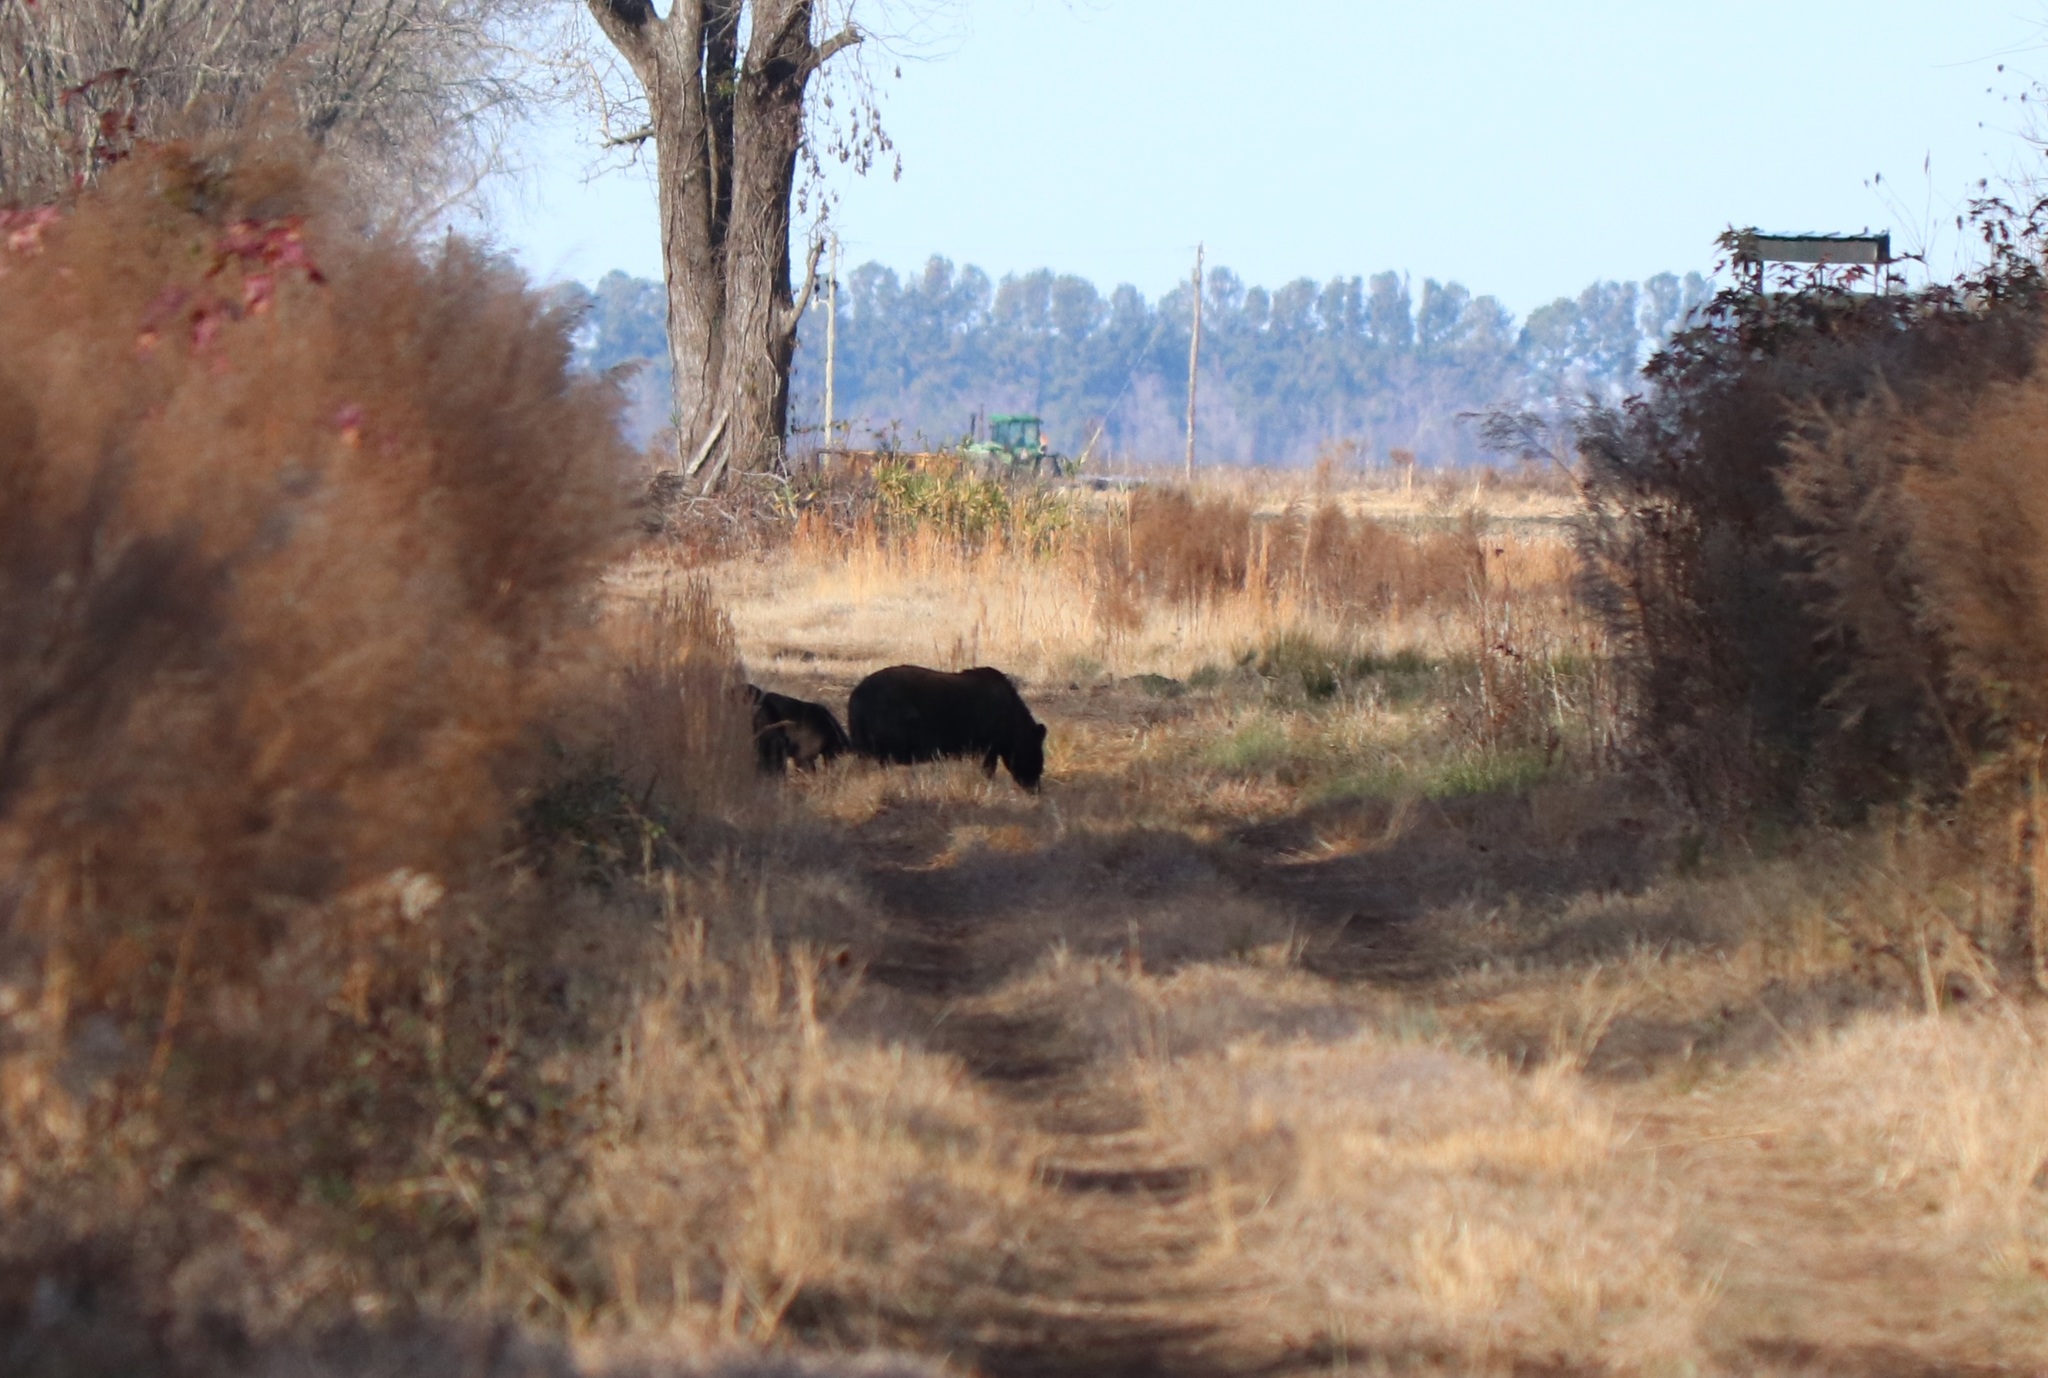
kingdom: Animalia
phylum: Chordata
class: Mammalia
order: Carnivora
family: Ursidae
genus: Ursus
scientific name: Ursus americanus
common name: American black bear
